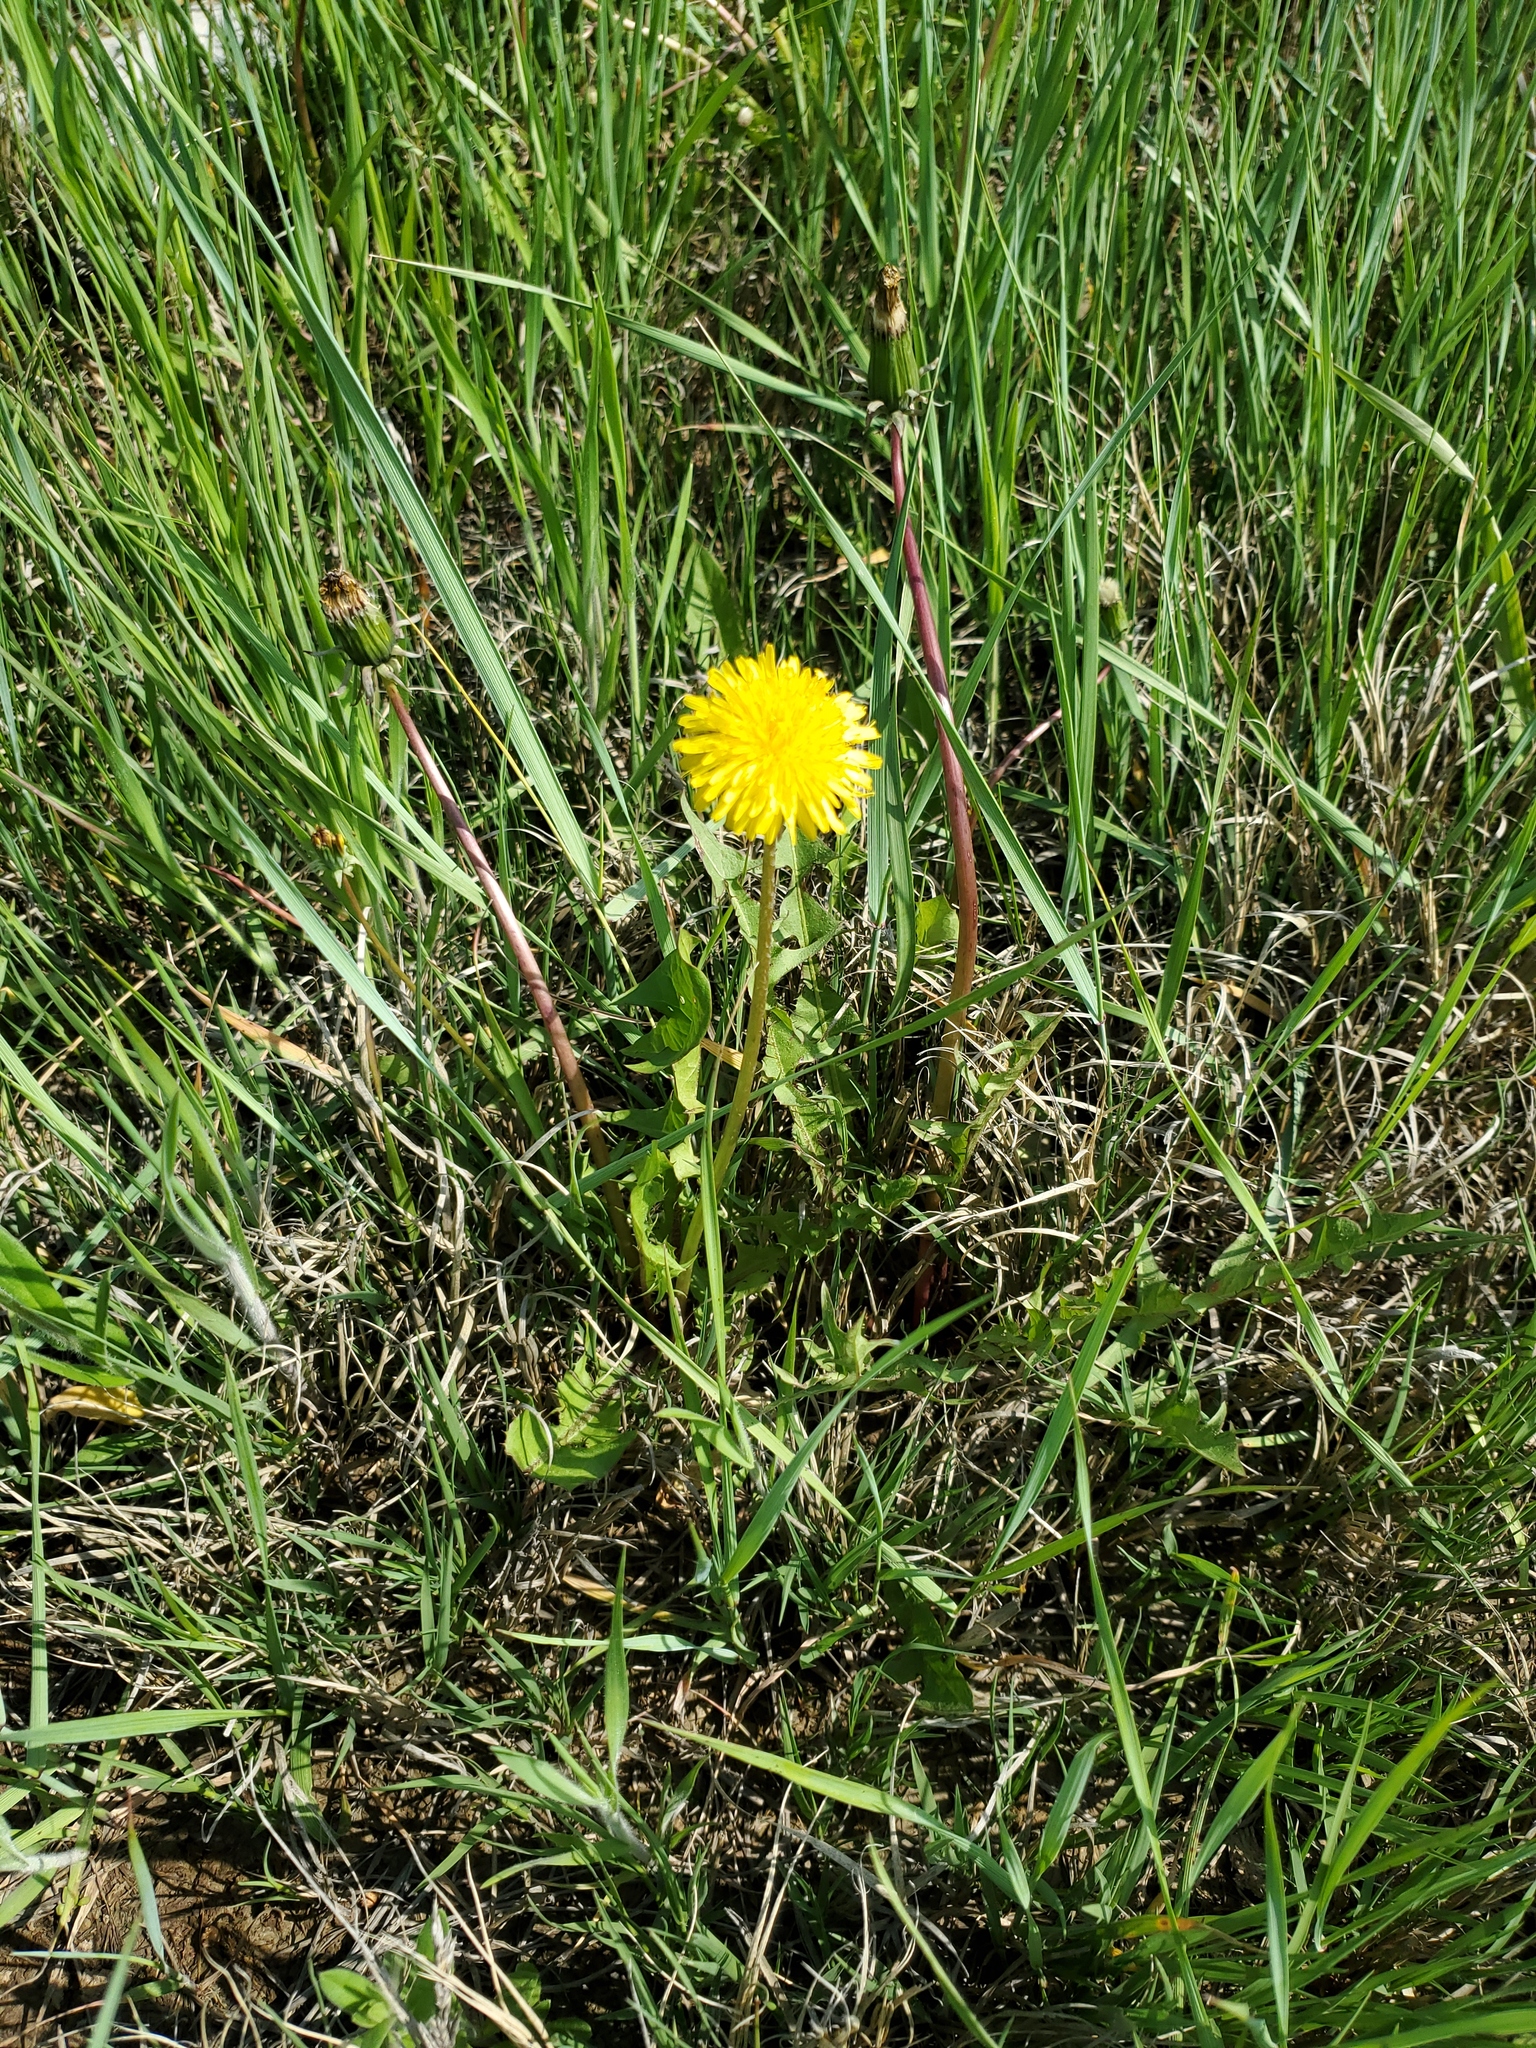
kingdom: Plantae
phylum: Tracheophyta
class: Magnoliopsida
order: Asterales
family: Asteraceae
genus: Taraxacum
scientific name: Taraxacum officinale
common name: Common dandelion
